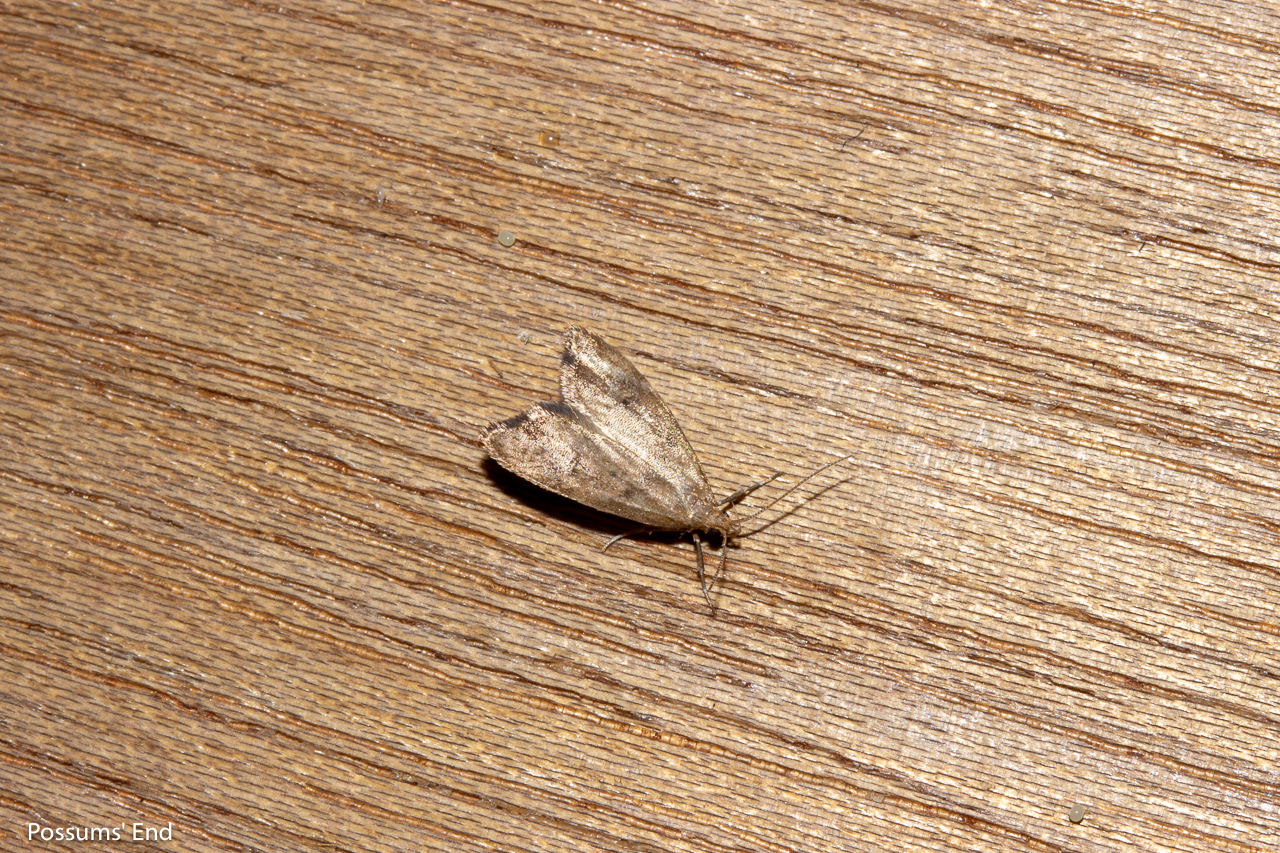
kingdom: Animalia
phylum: Arthropoda
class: Insecta
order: Lepidoptera
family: Oecophoridae
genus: Gymnobathra
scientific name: Gymnobathra hamatella
